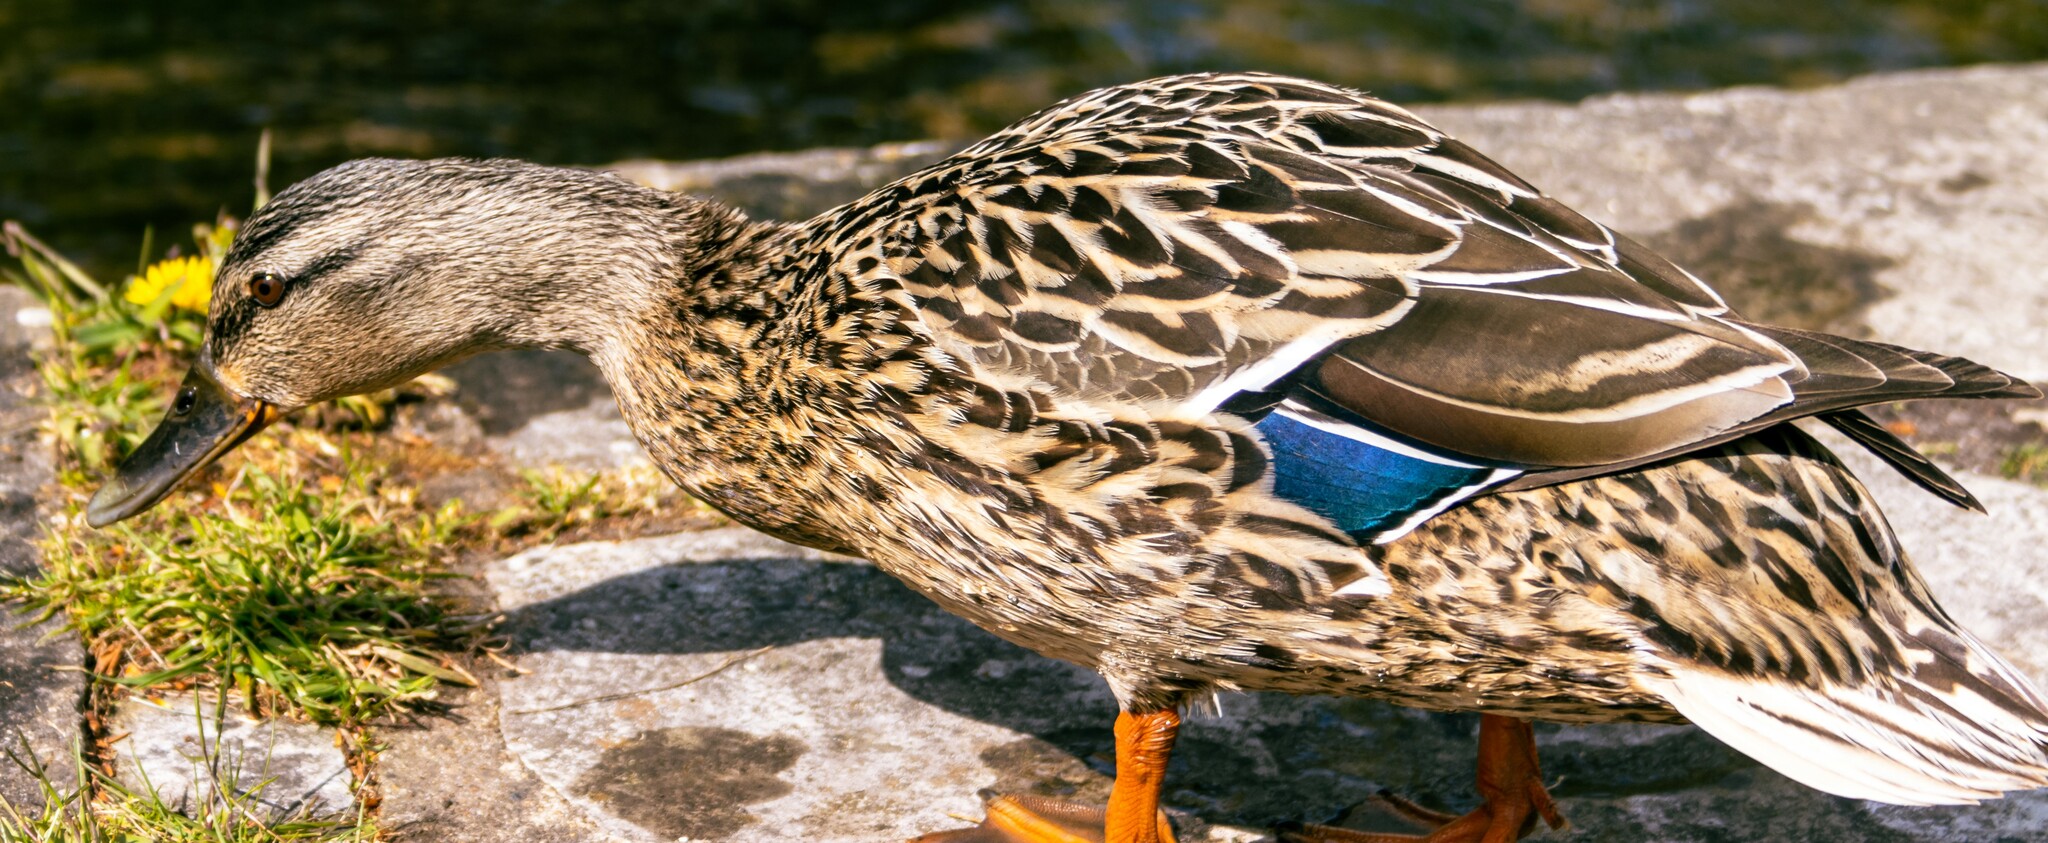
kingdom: Animalia
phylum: Chordata
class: Aves
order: Anseriformes
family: Anatidae
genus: Anas
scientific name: Anas platyrhynchos
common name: Mallard
